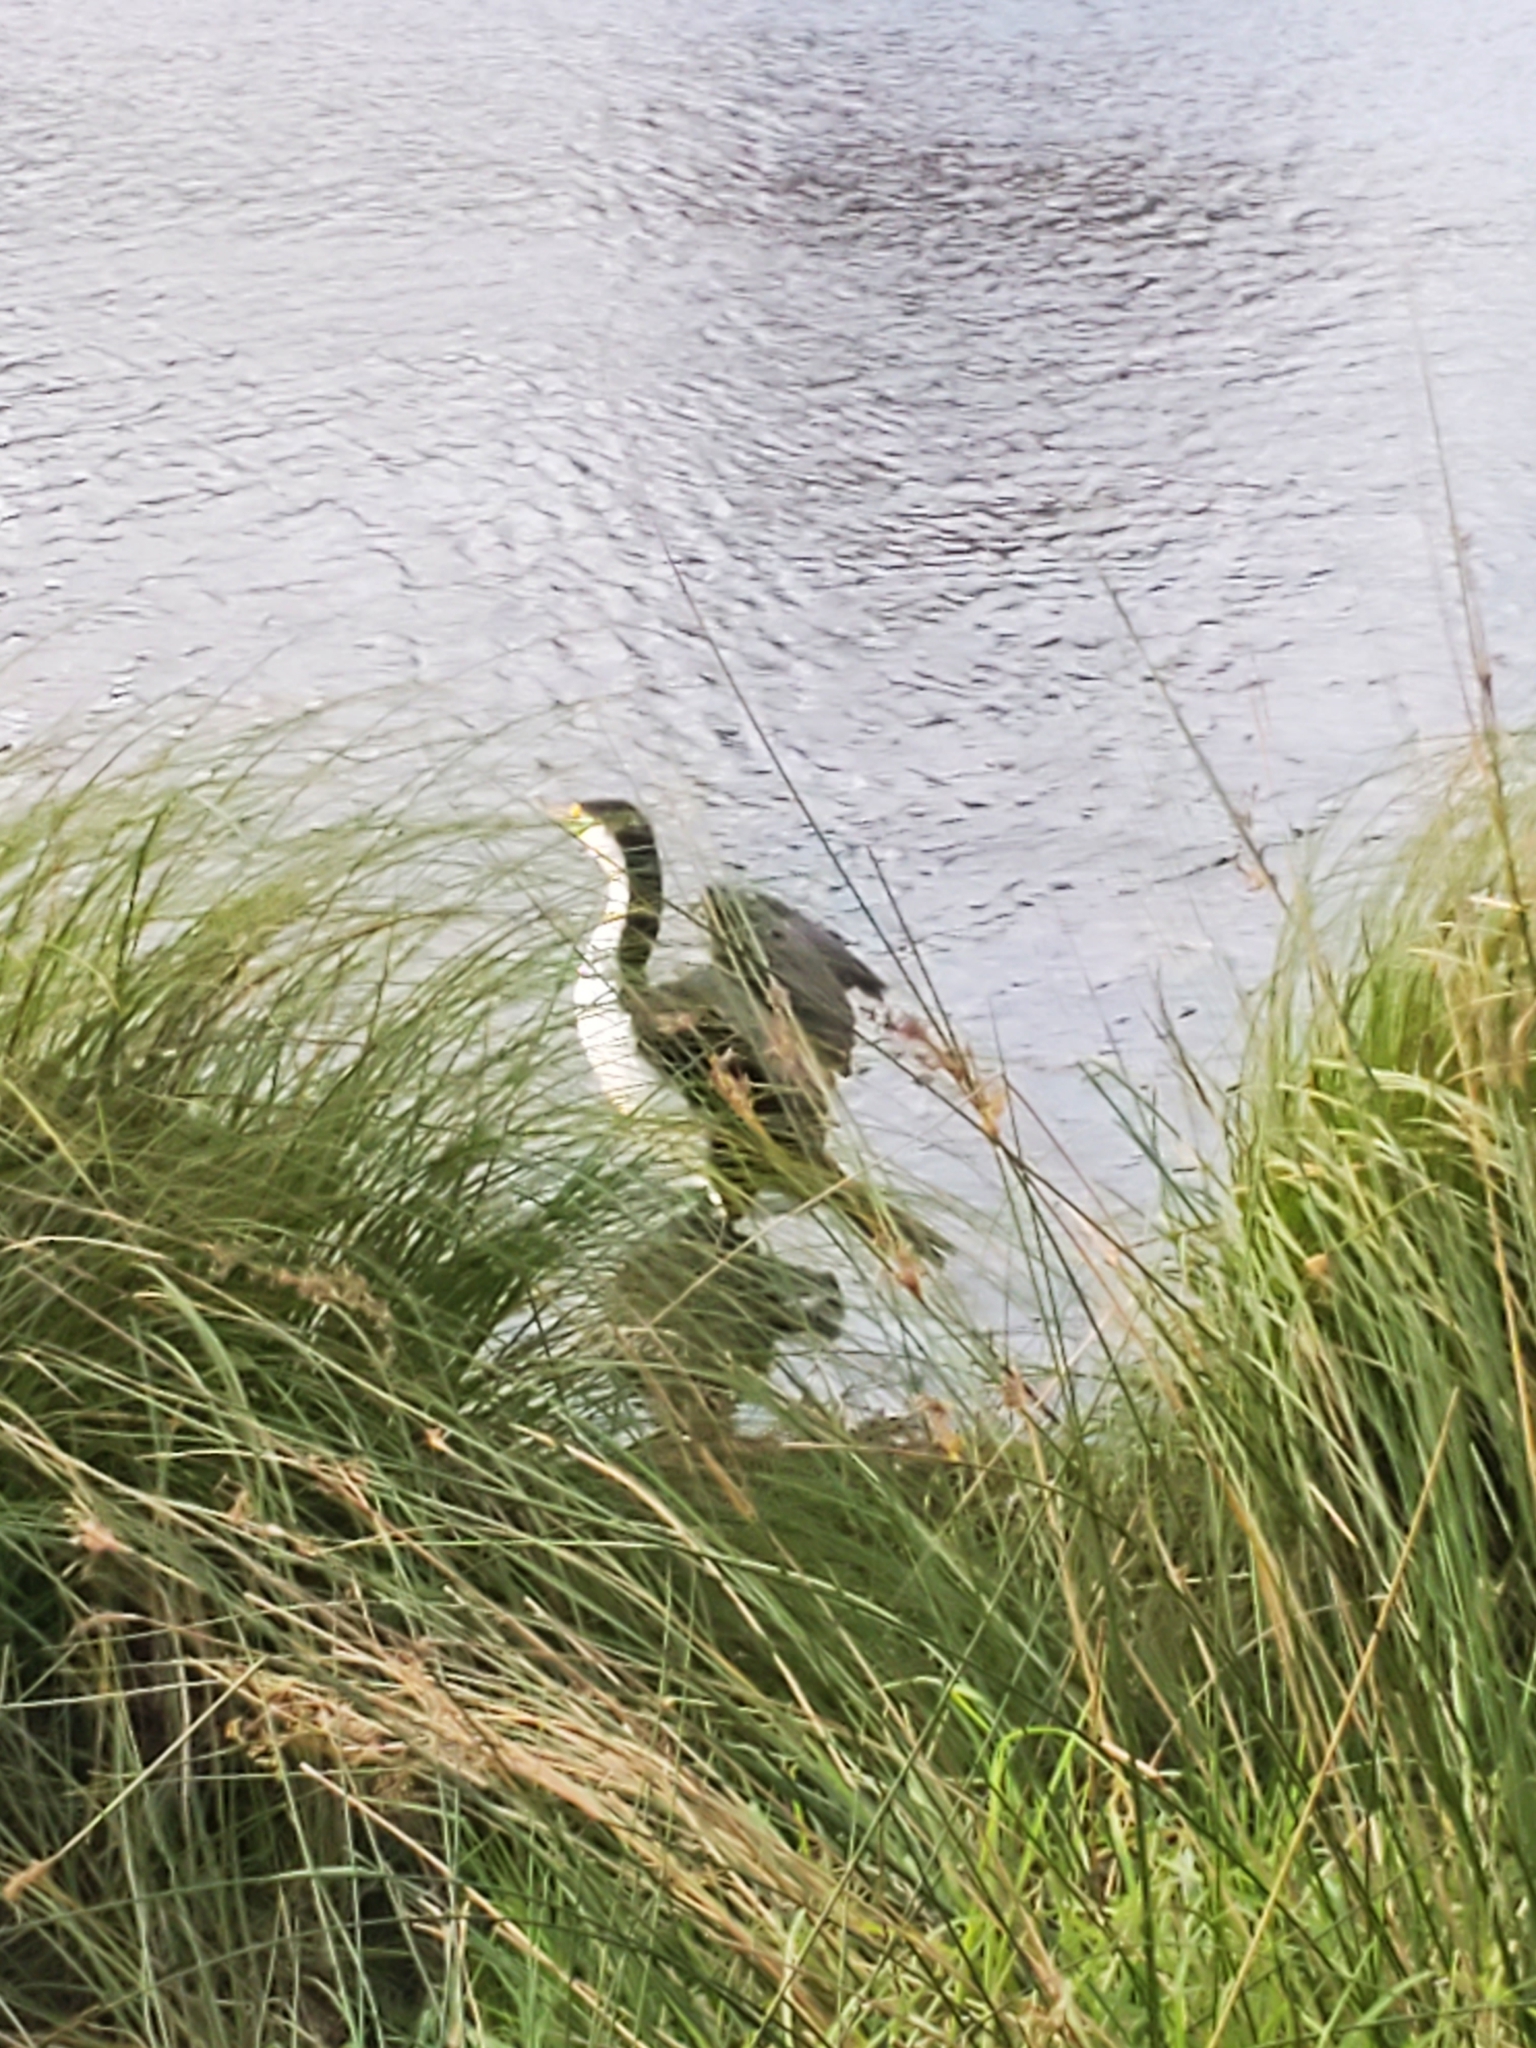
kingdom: Animalia
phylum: Chordata
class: Aves
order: Suliformes
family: Phalacrocoracidae
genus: Phalacrocorax
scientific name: Phalacrocorax varius
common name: Pied cormorant
